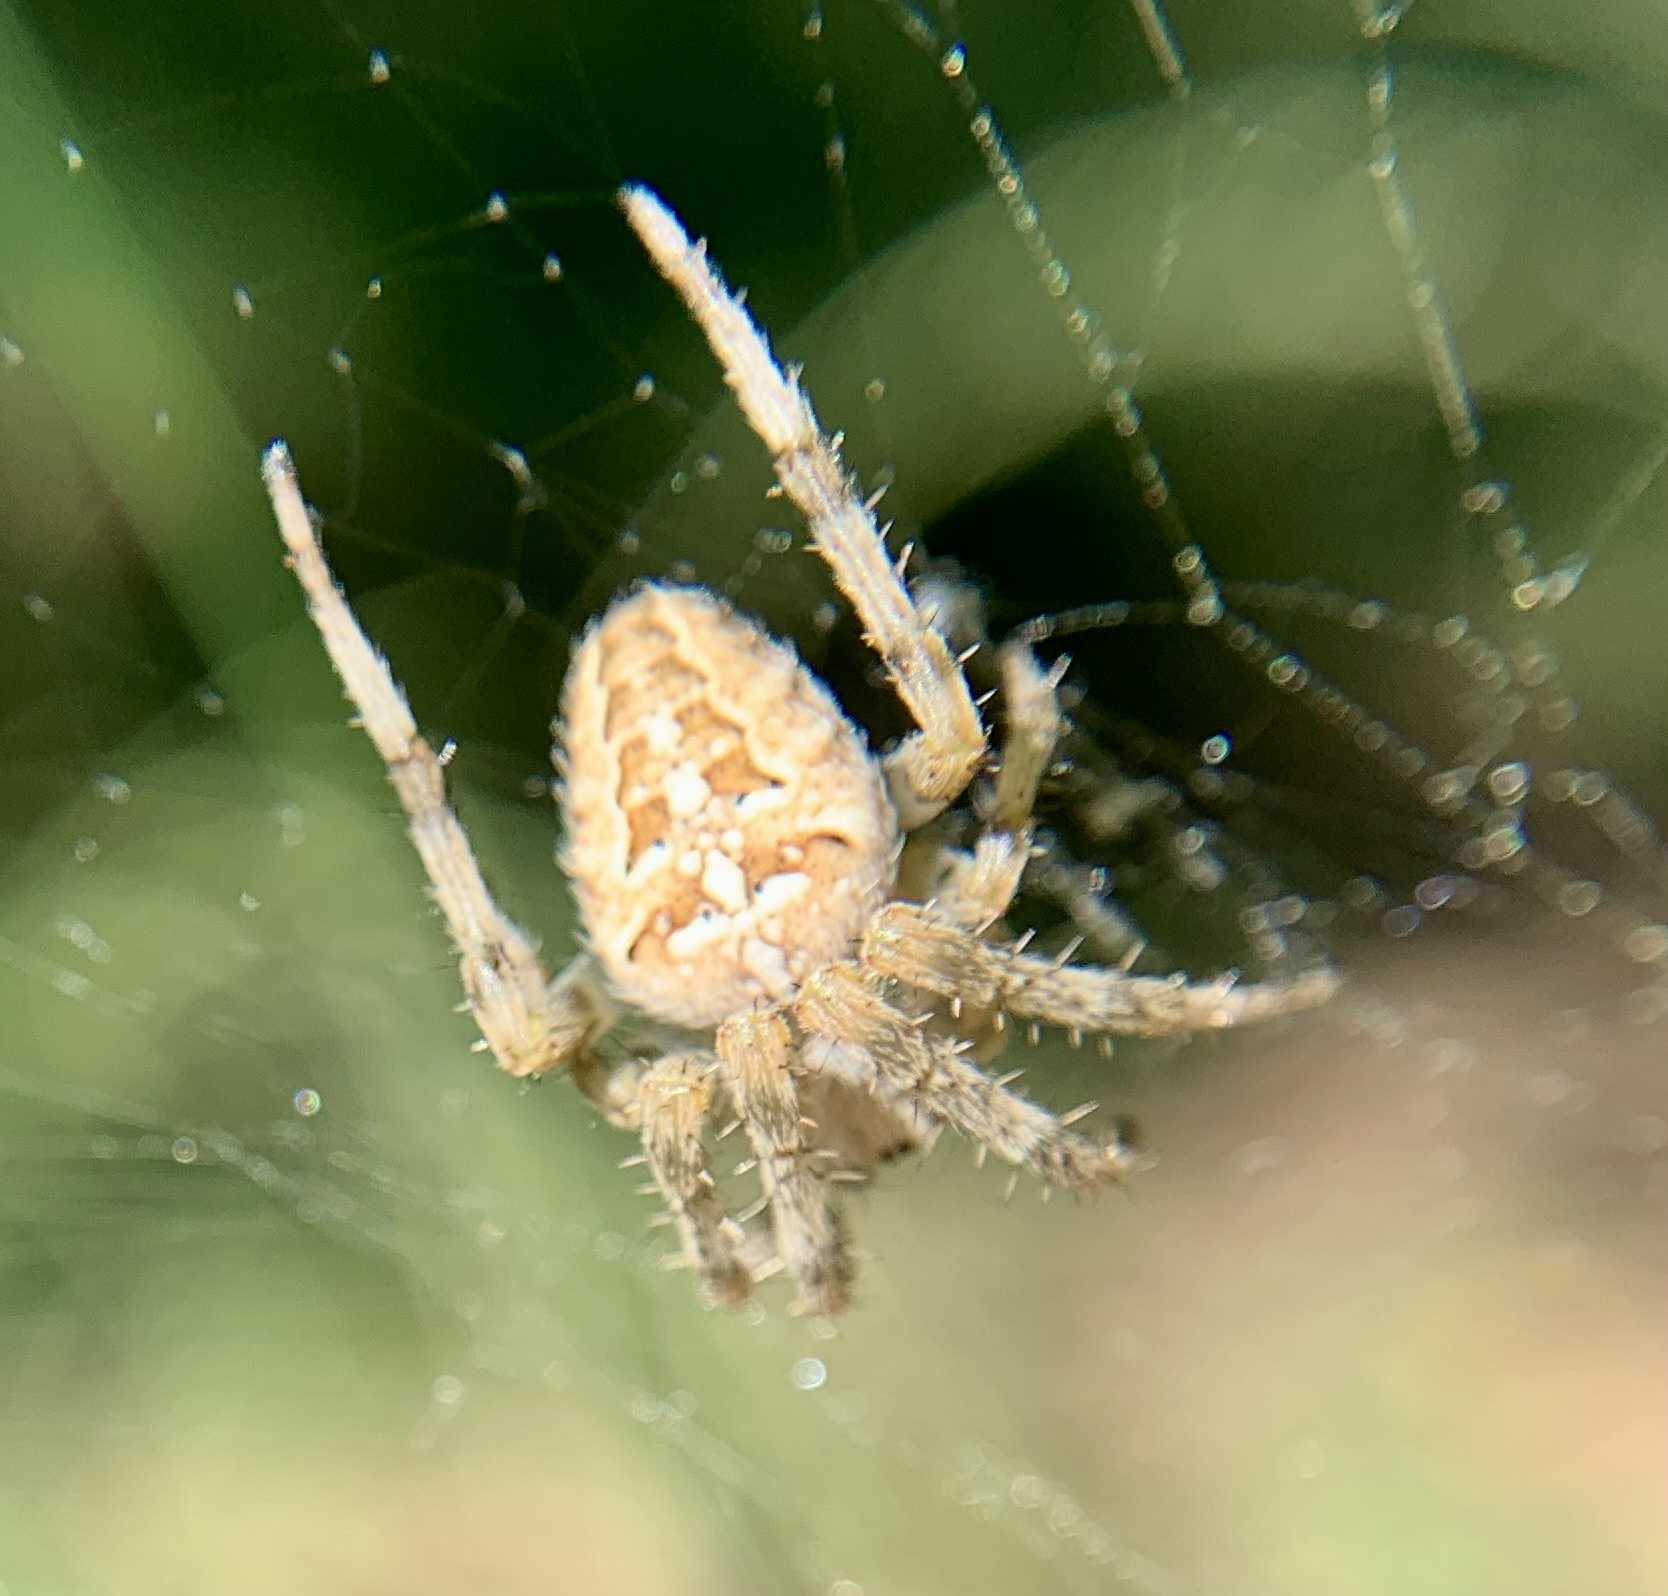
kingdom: Animalia
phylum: Arthropoda
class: Arachnida
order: Araneae
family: Araneidae
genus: Araneus
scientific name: Araneus diadematus
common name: Cross orbweaver
